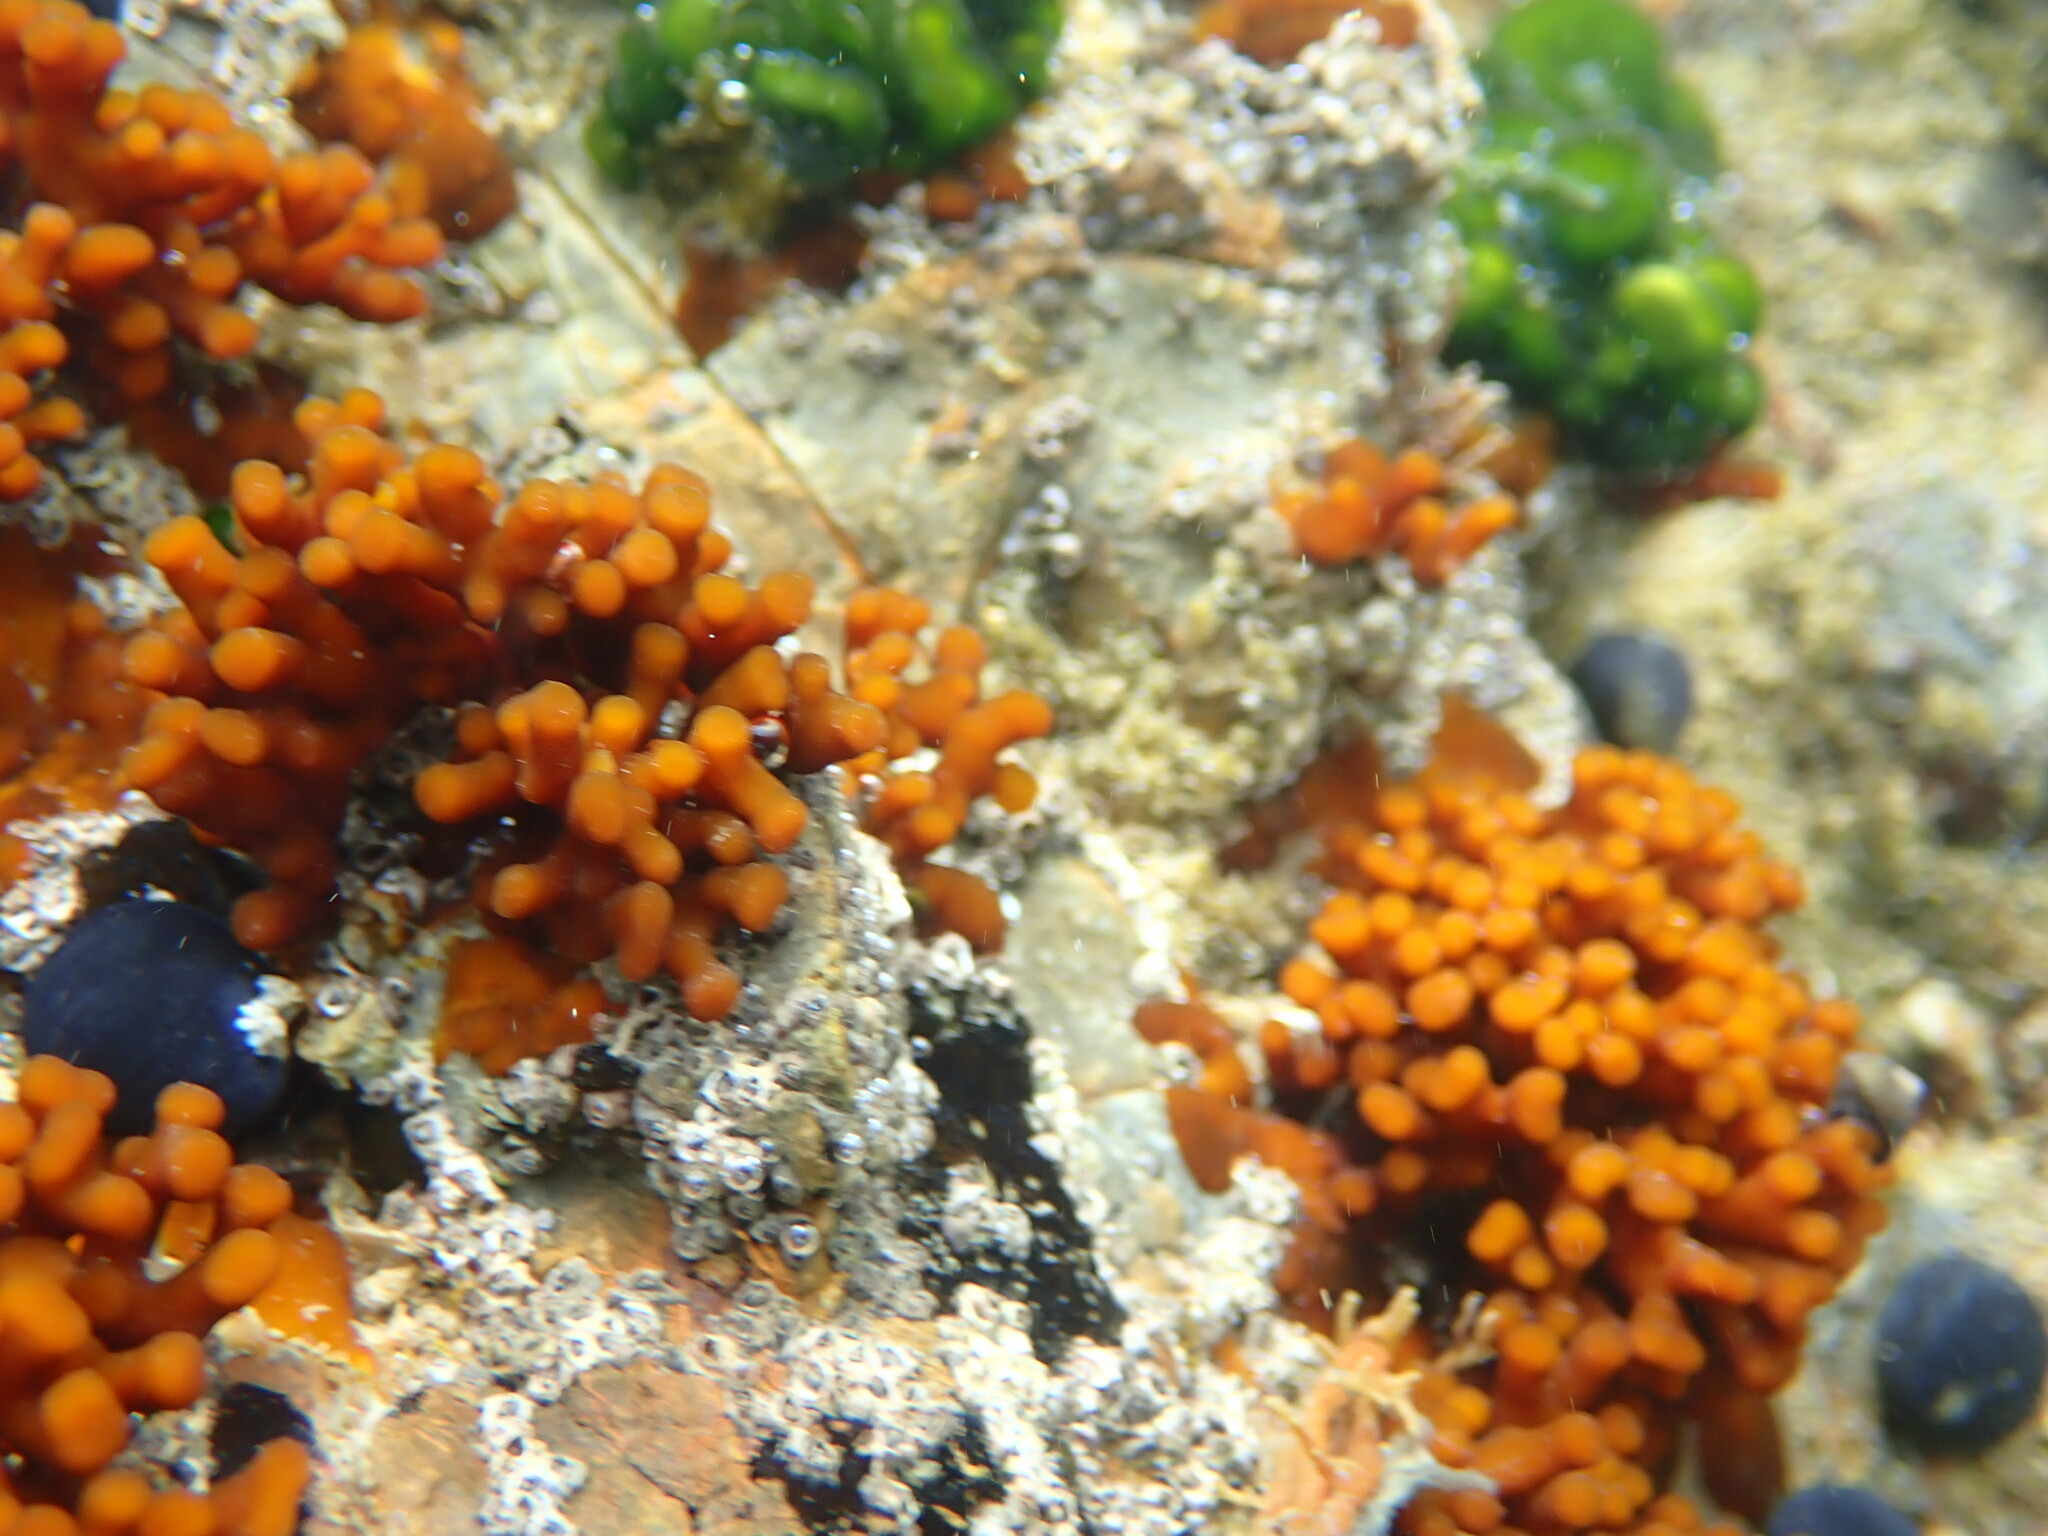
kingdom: Plantae
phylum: Rhodophyta
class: Florideophyceae
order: Hildenbrandiales
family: Hildenbrandiaceae
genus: Apophlaea
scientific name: Apophlaea sinclairii
